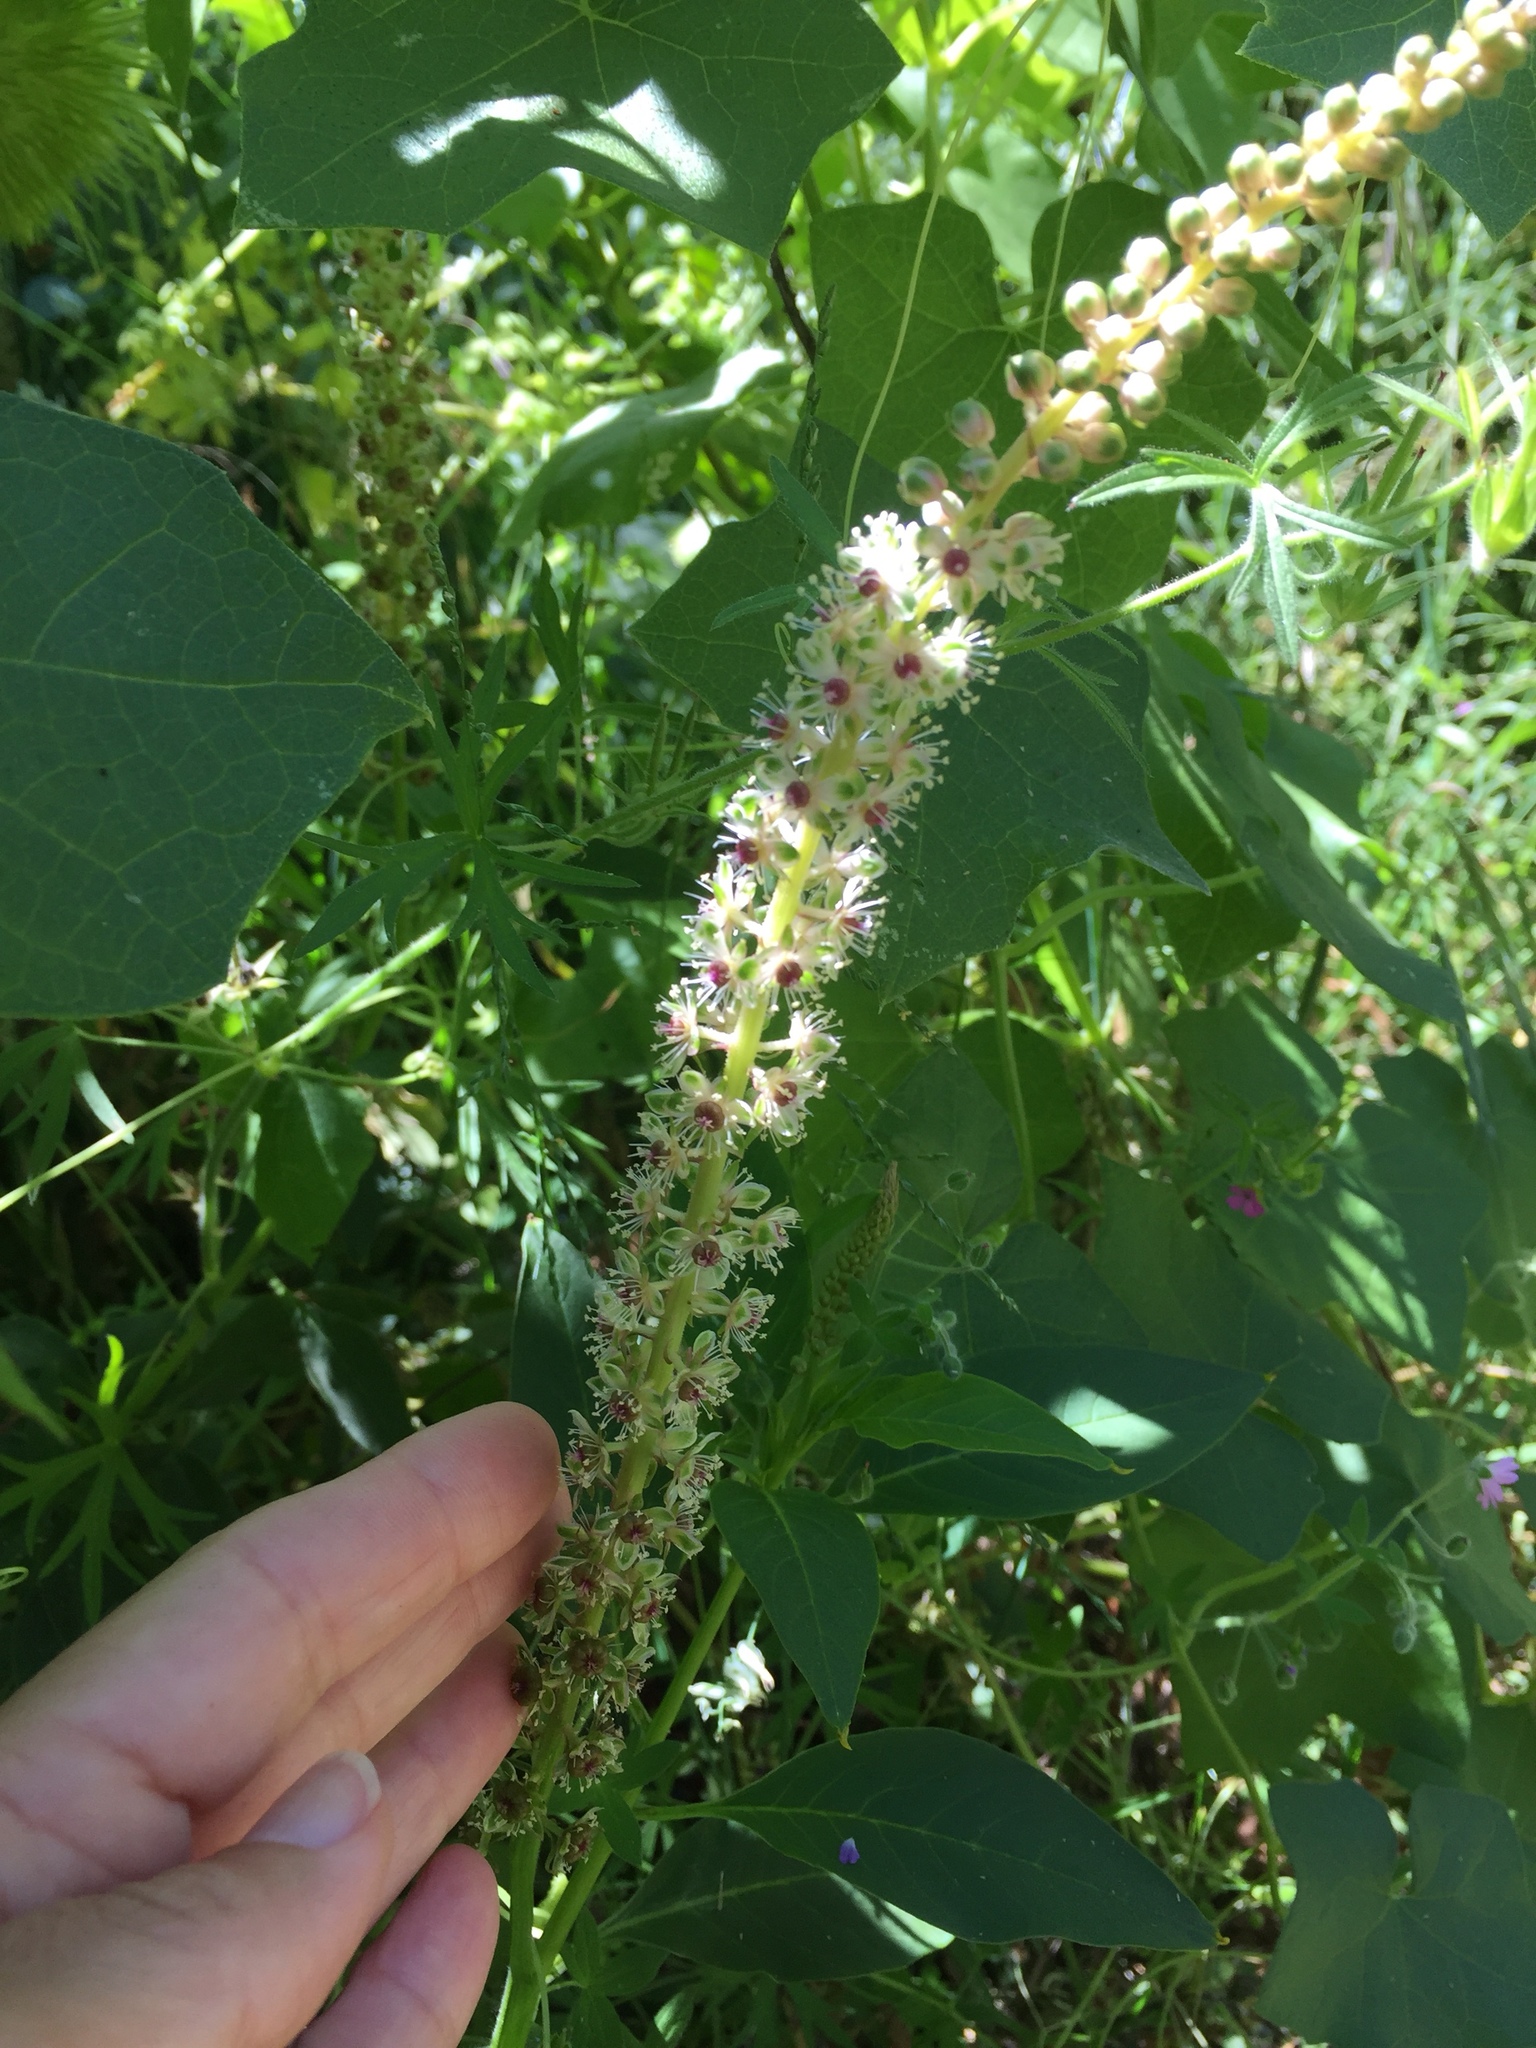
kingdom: Plantae
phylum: Tracheophyta
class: Magnoliopsida
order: Caryophyllales
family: Phytolaccaceae
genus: Phytolacca
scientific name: Phytolacca americana
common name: American pokeweed
